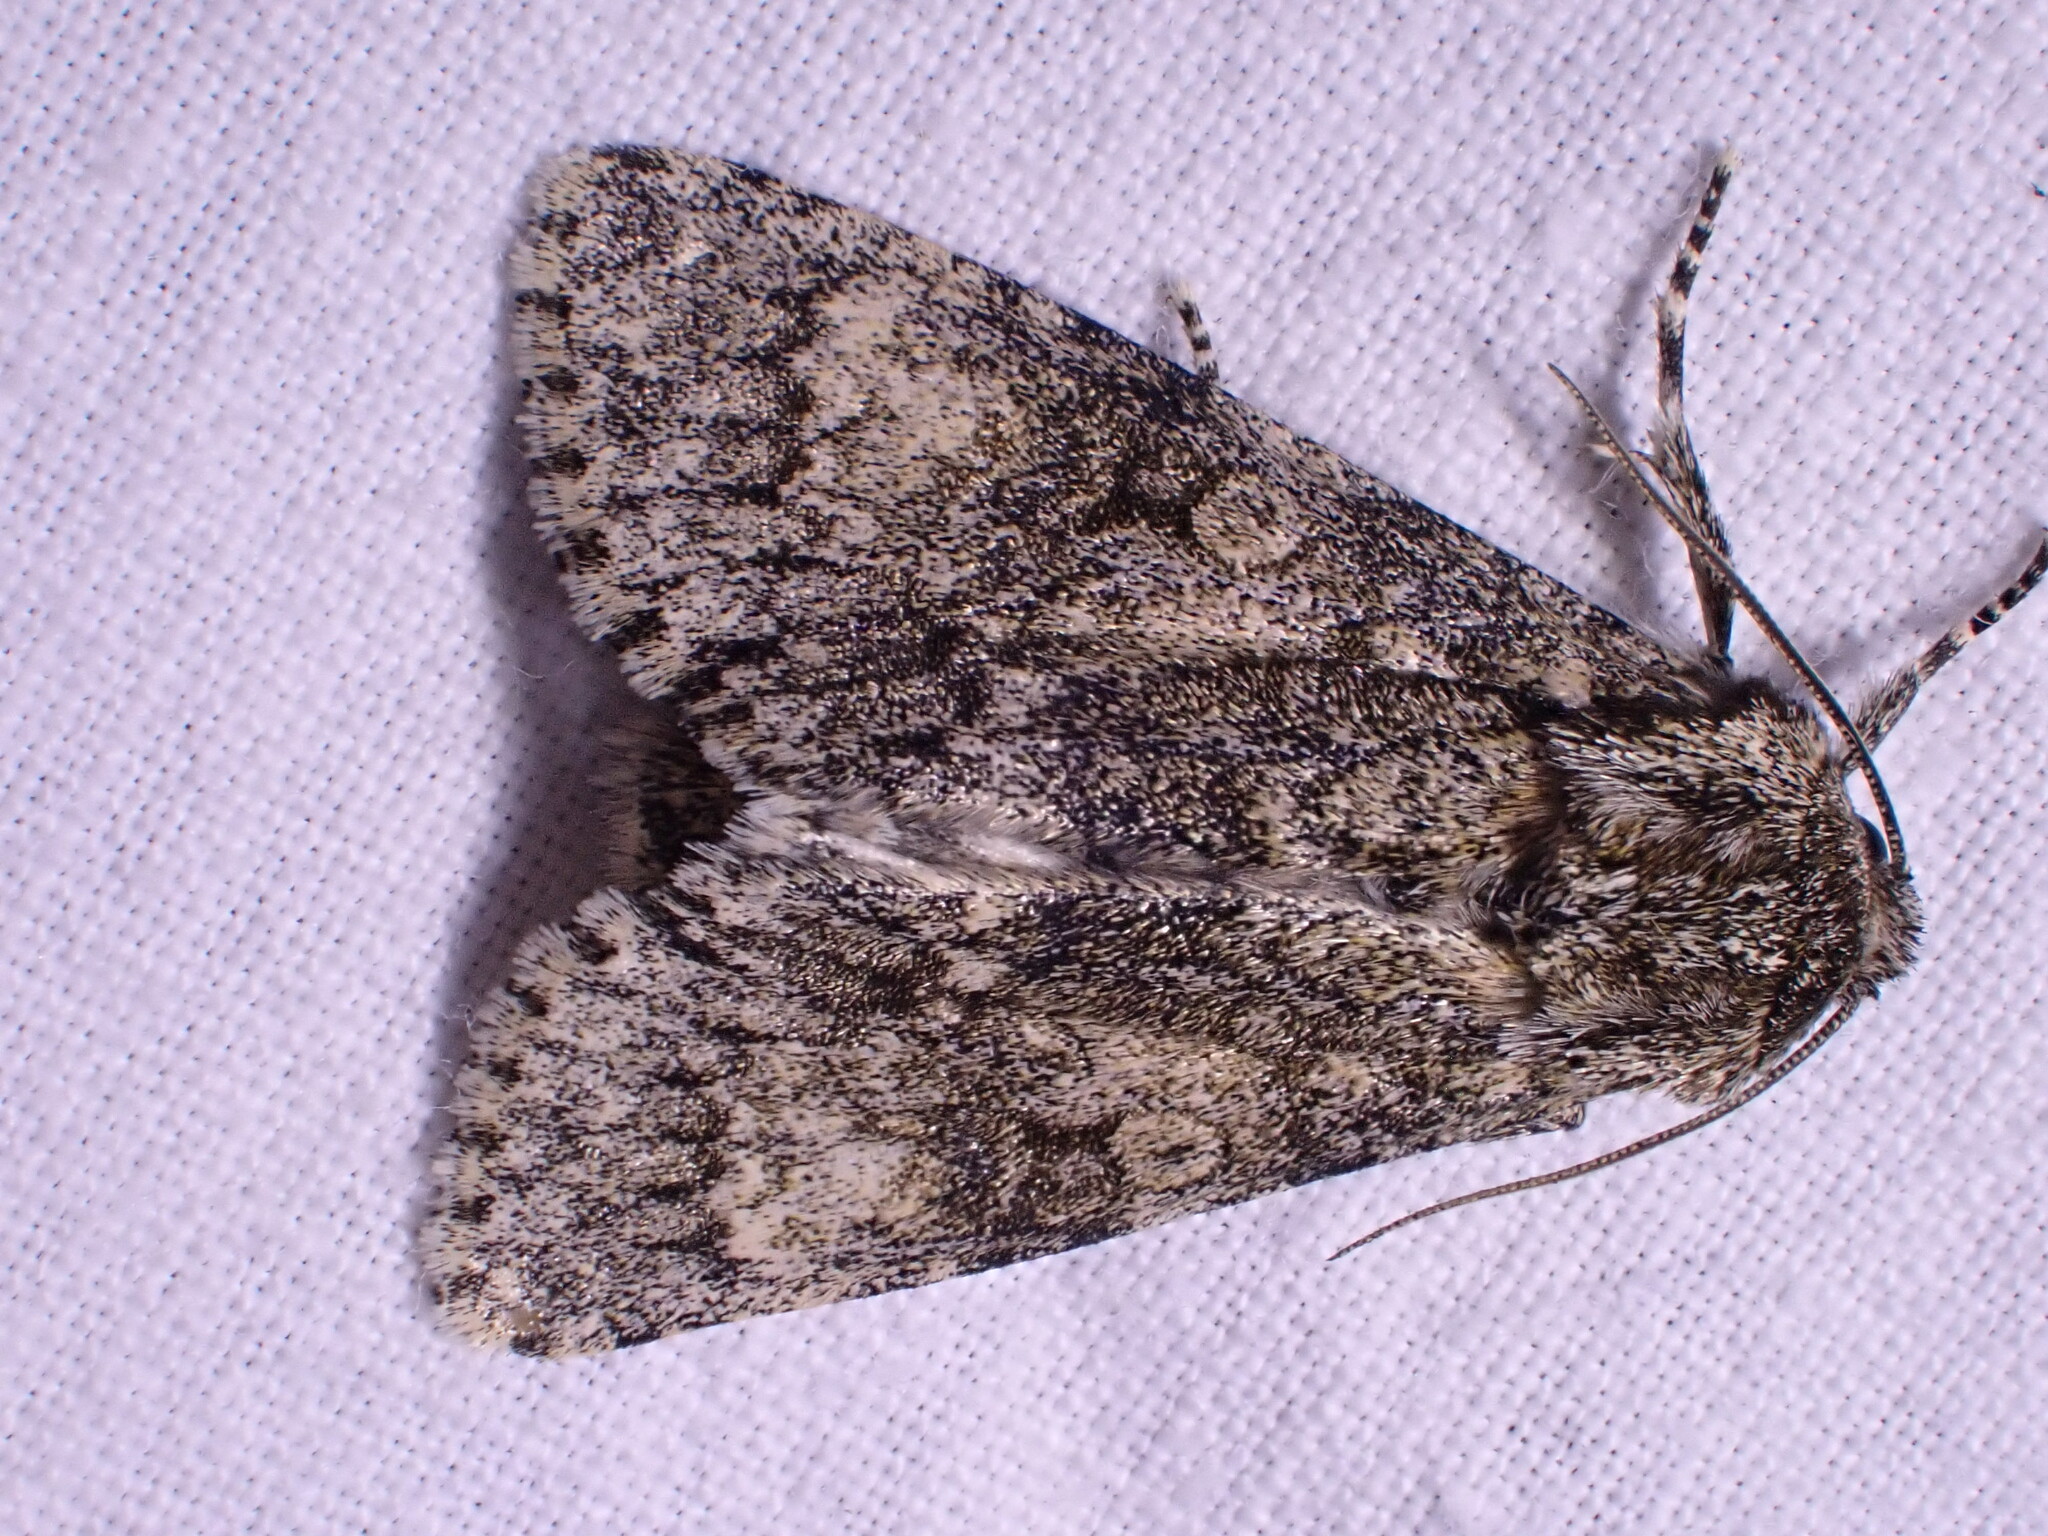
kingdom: Animalia
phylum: Arthropoda
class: Insecta
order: Lepidoptera
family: Noctuidae
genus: Acronicta
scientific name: Acronicta megacephala
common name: Poplar grey
